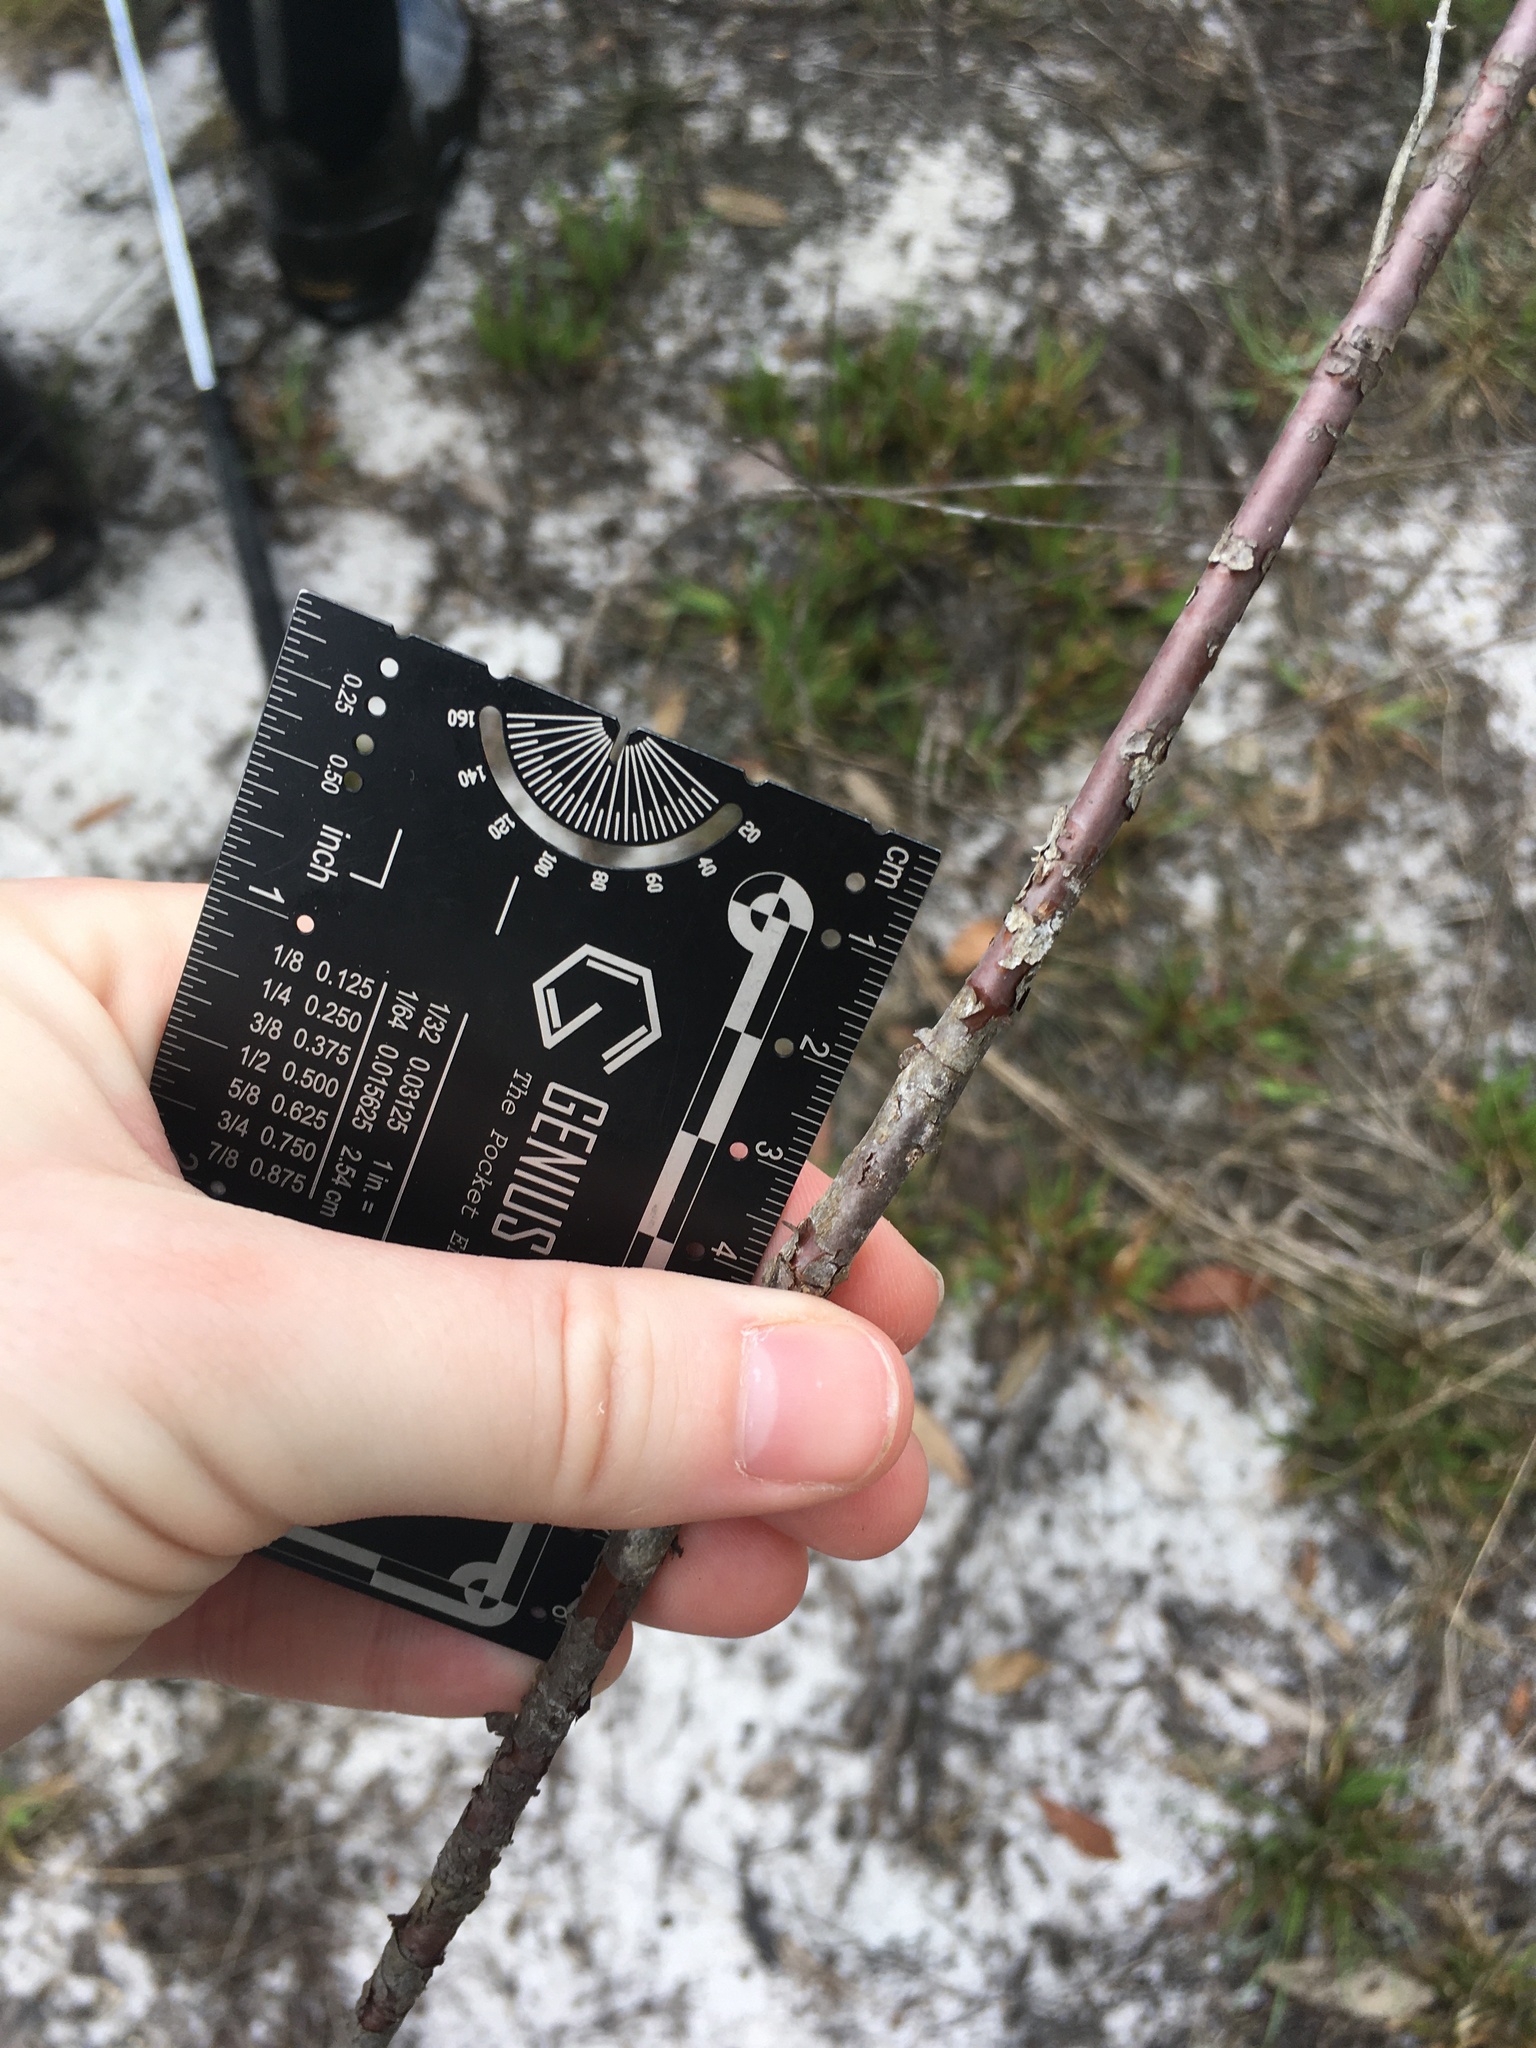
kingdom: Plantae
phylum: Tracheophyta
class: Magnoliopsida
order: Malpighiales
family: Hypericaceae
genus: Hypericum
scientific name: Hypericum lissophloeus
